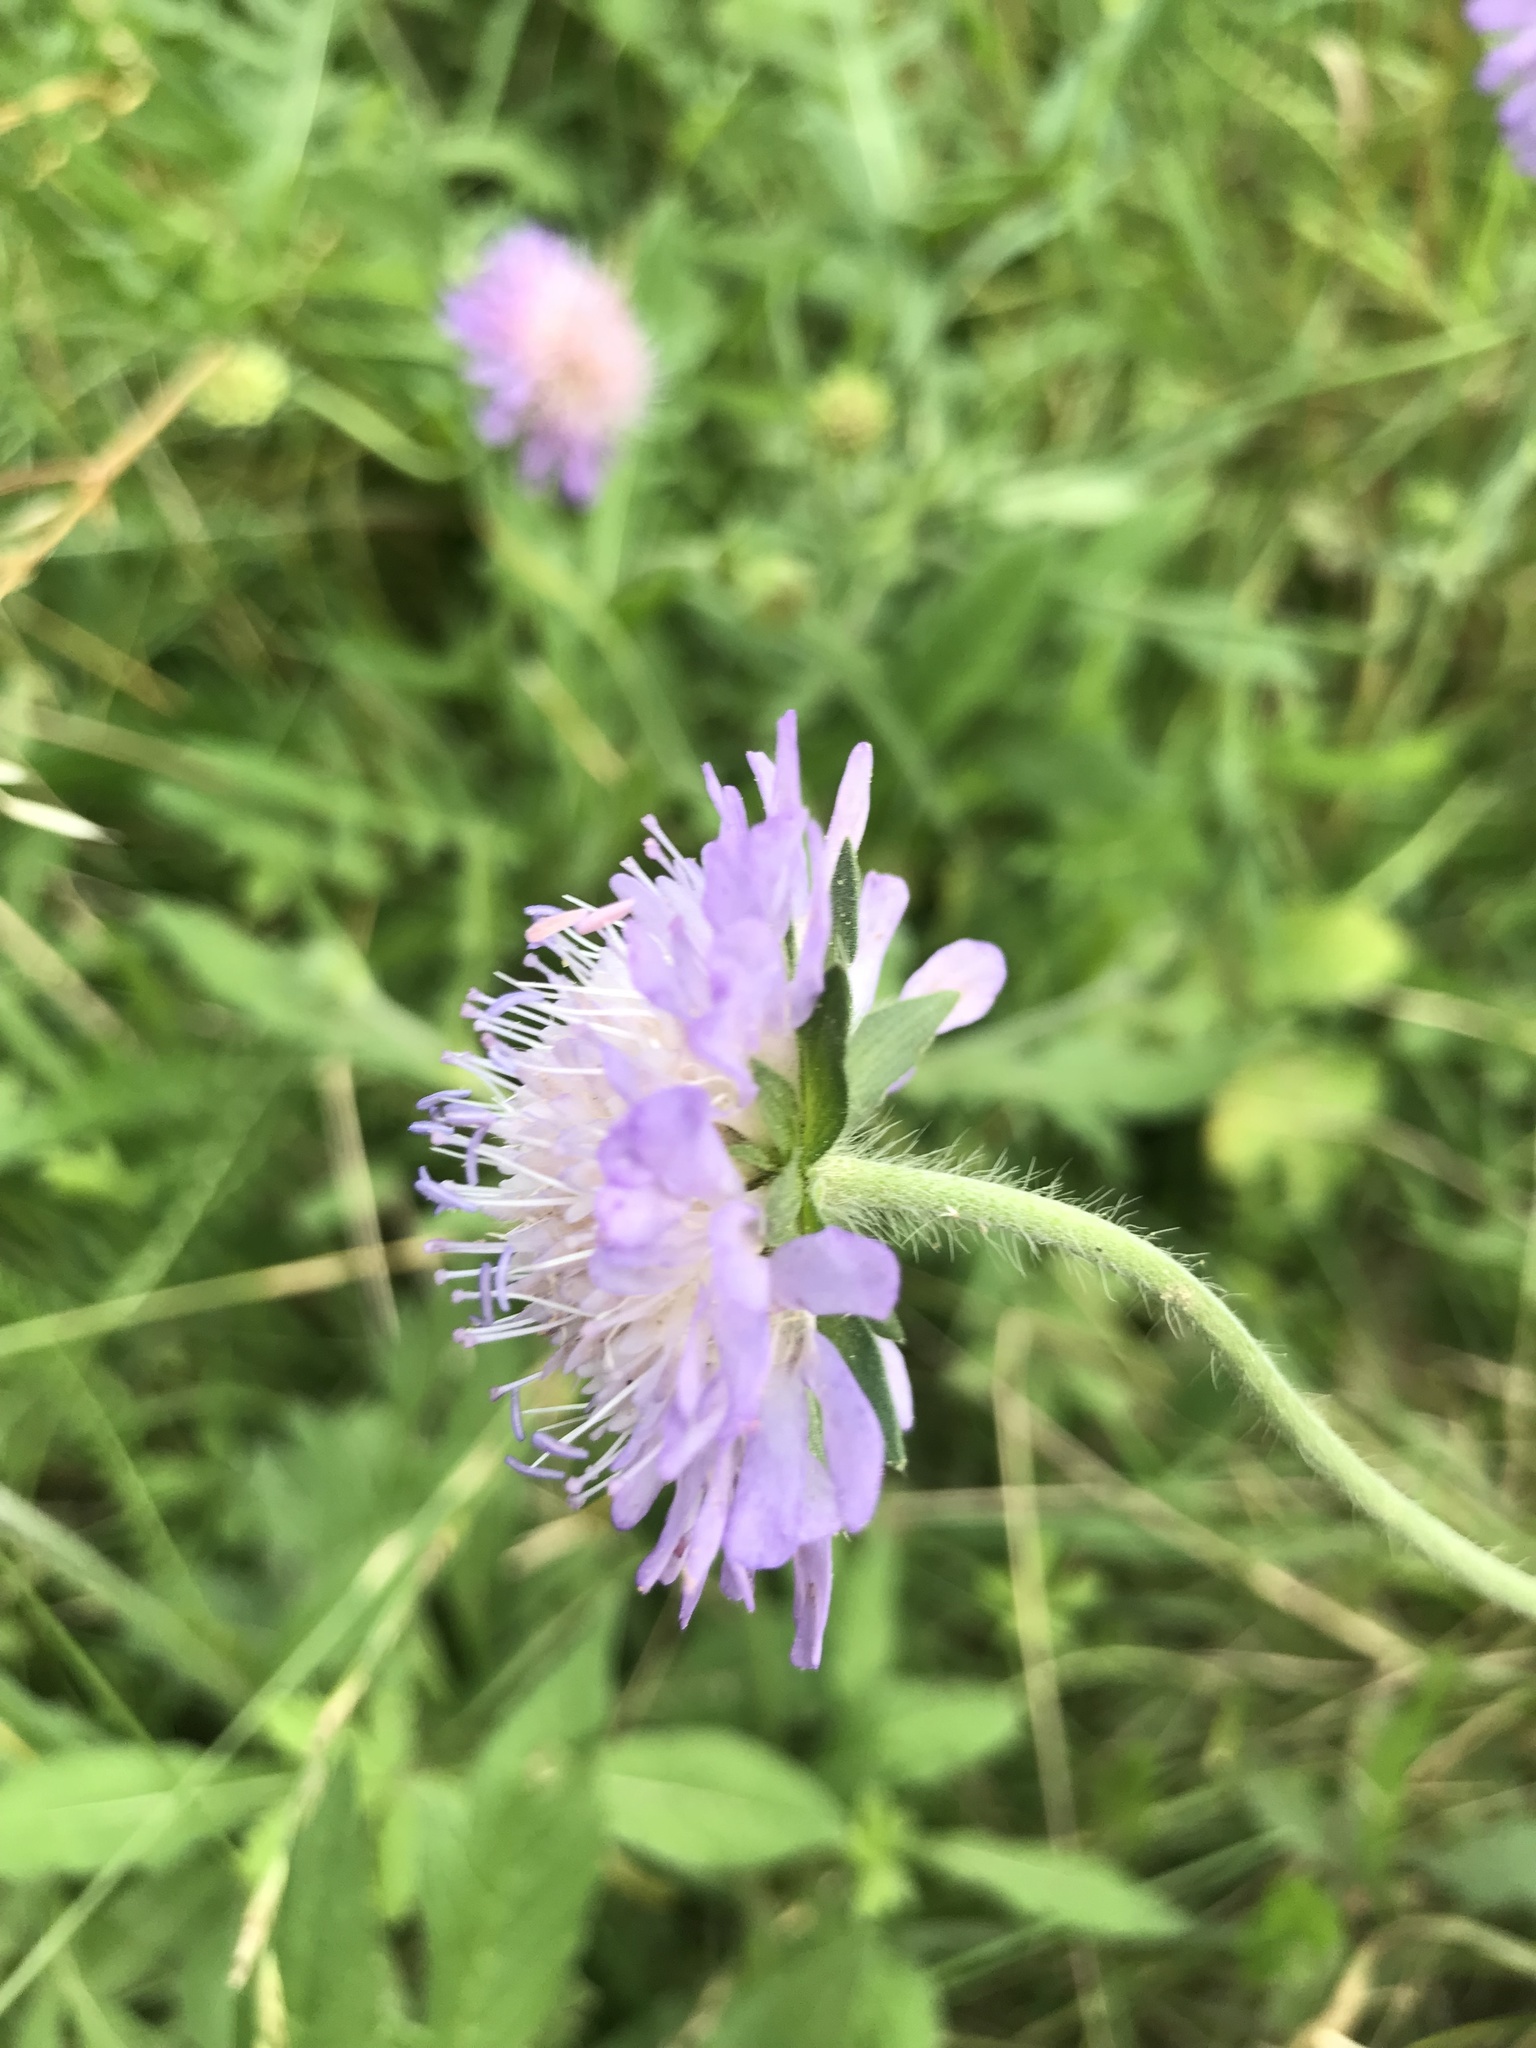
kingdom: Plantae
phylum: Tracheophyta
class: Magnoliopsida
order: Dipsacales
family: Caprifoliaceae
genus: Knautia
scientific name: Knautia arvensis
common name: Field scabiosa
